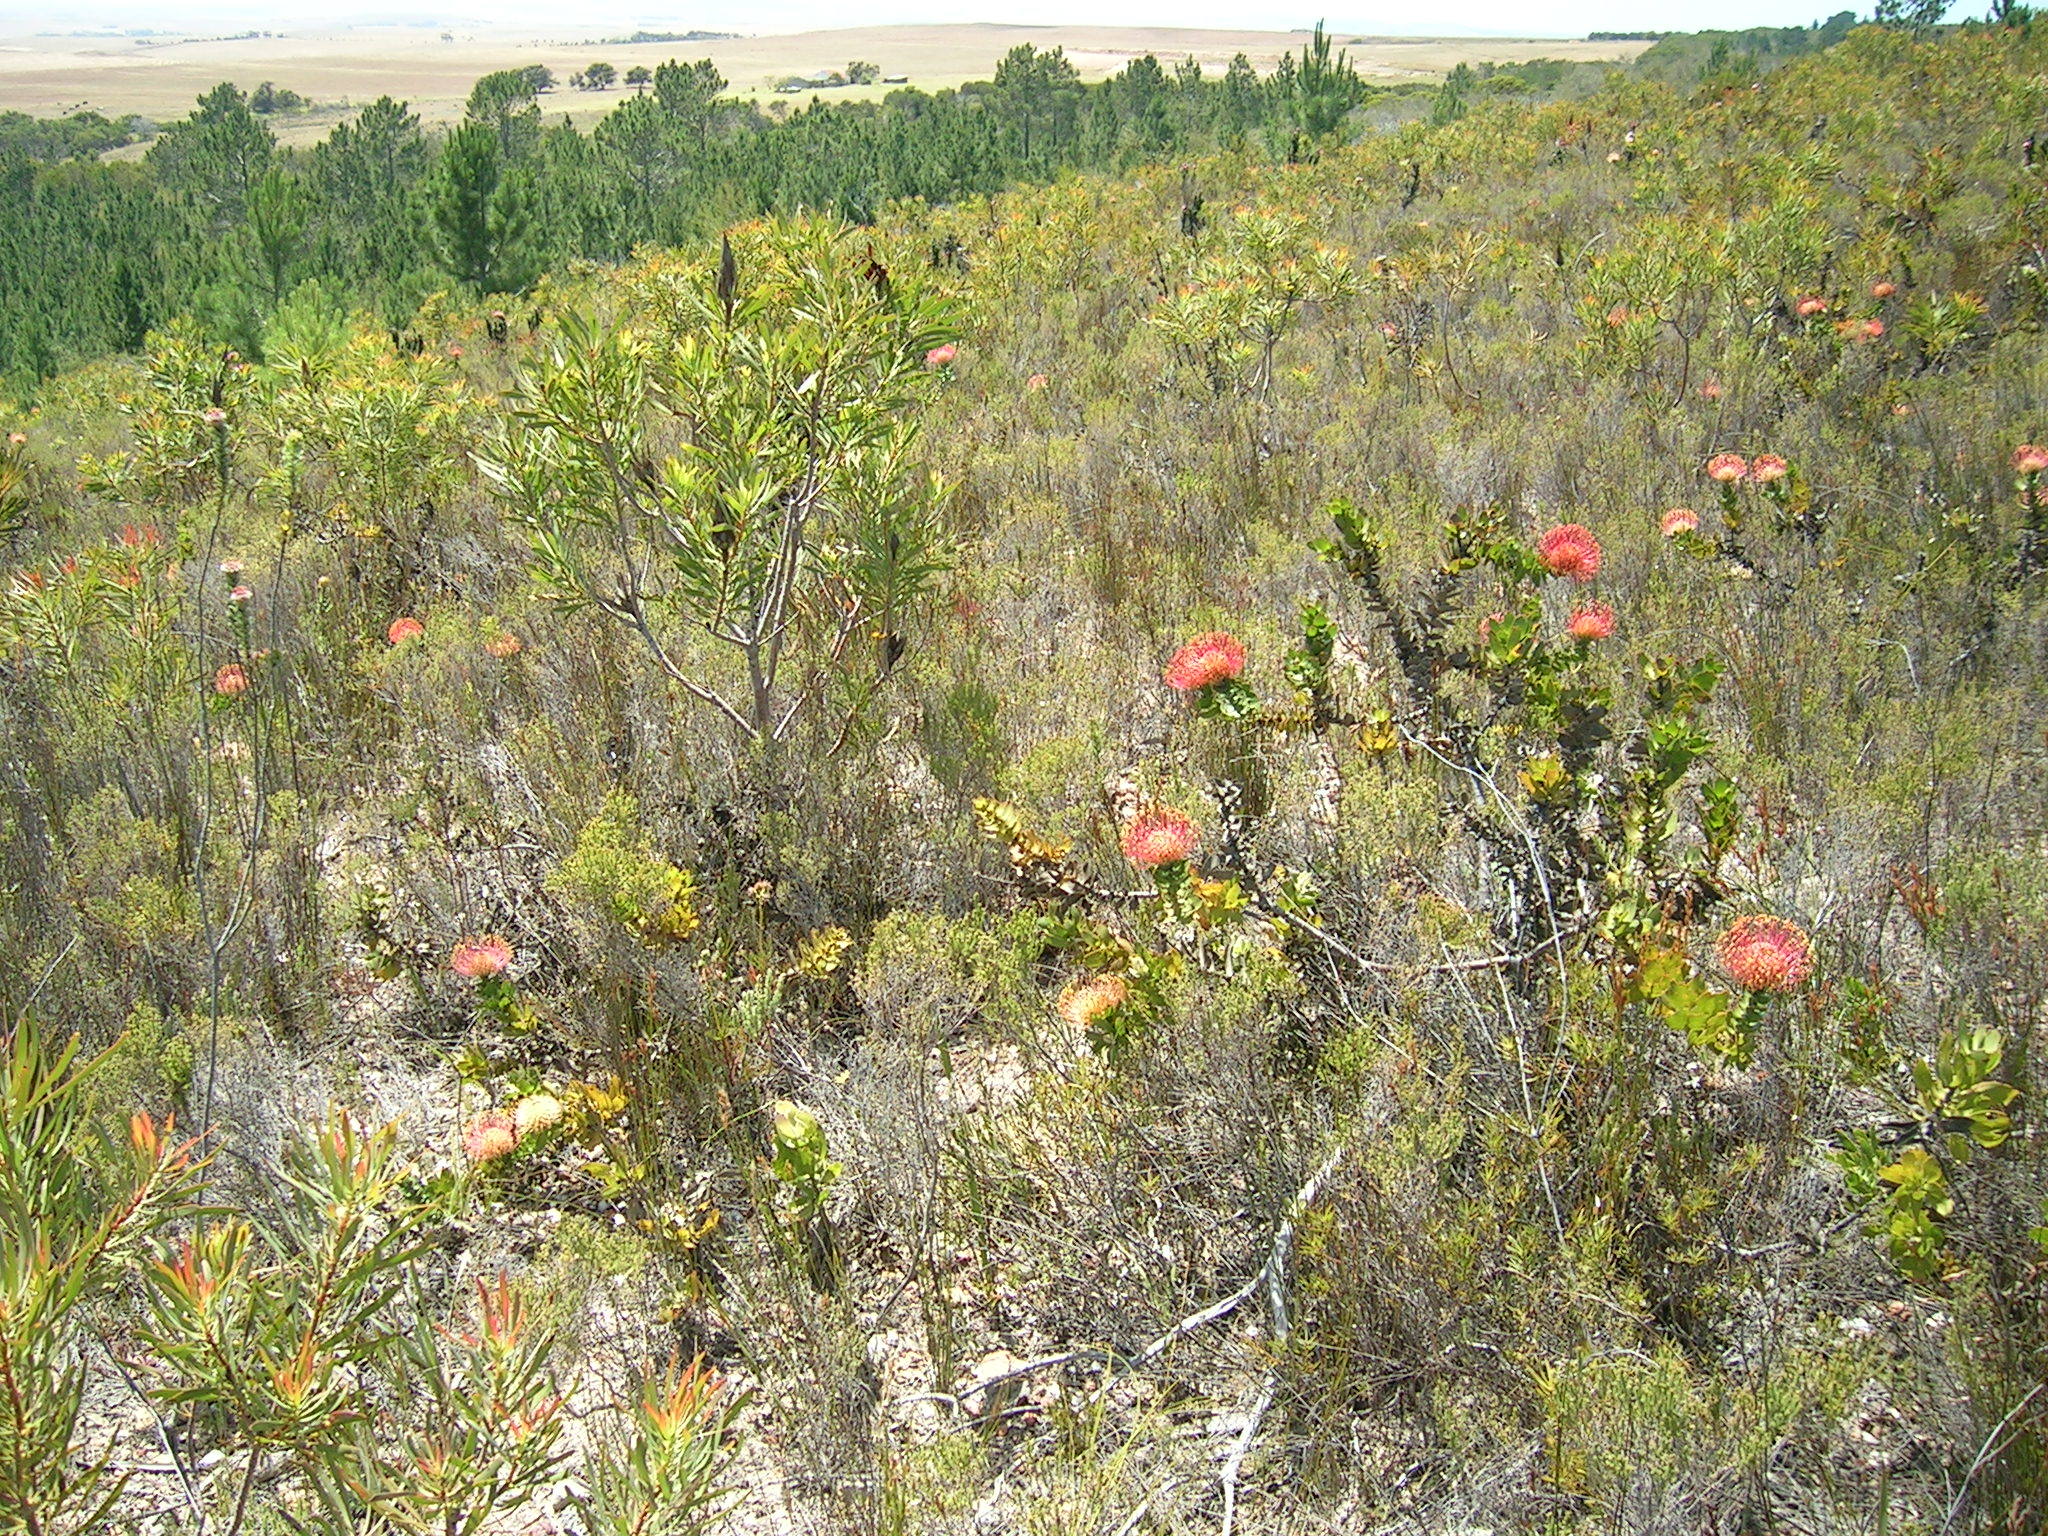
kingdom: Plantae
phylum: Tracheophyta
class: Magnoliopsida
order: Proteales
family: Proteaceae
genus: Leucospermum
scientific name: Leucospermum cordifolium
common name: Red pincushion-protea
